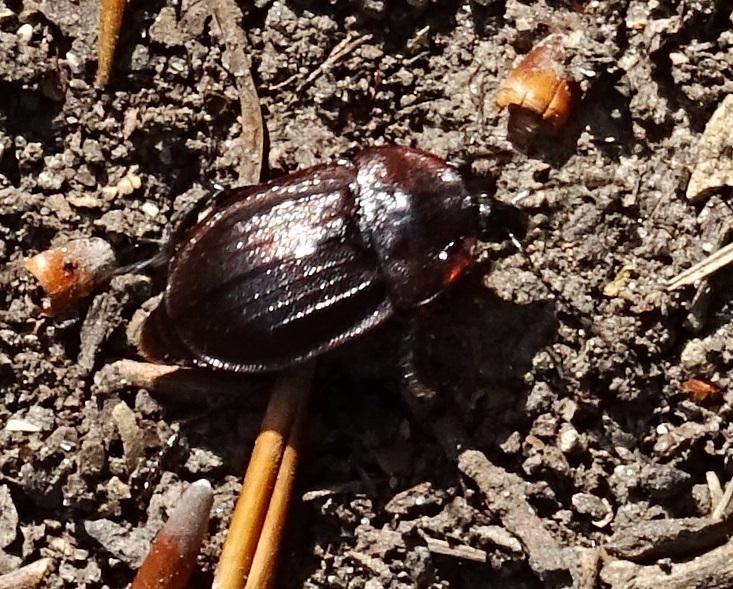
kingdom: Animalia
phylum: Arthropoda
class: Insecta
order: Coleoptera
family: Staphylinidae
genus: Silpha
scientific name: Silpha atrata
